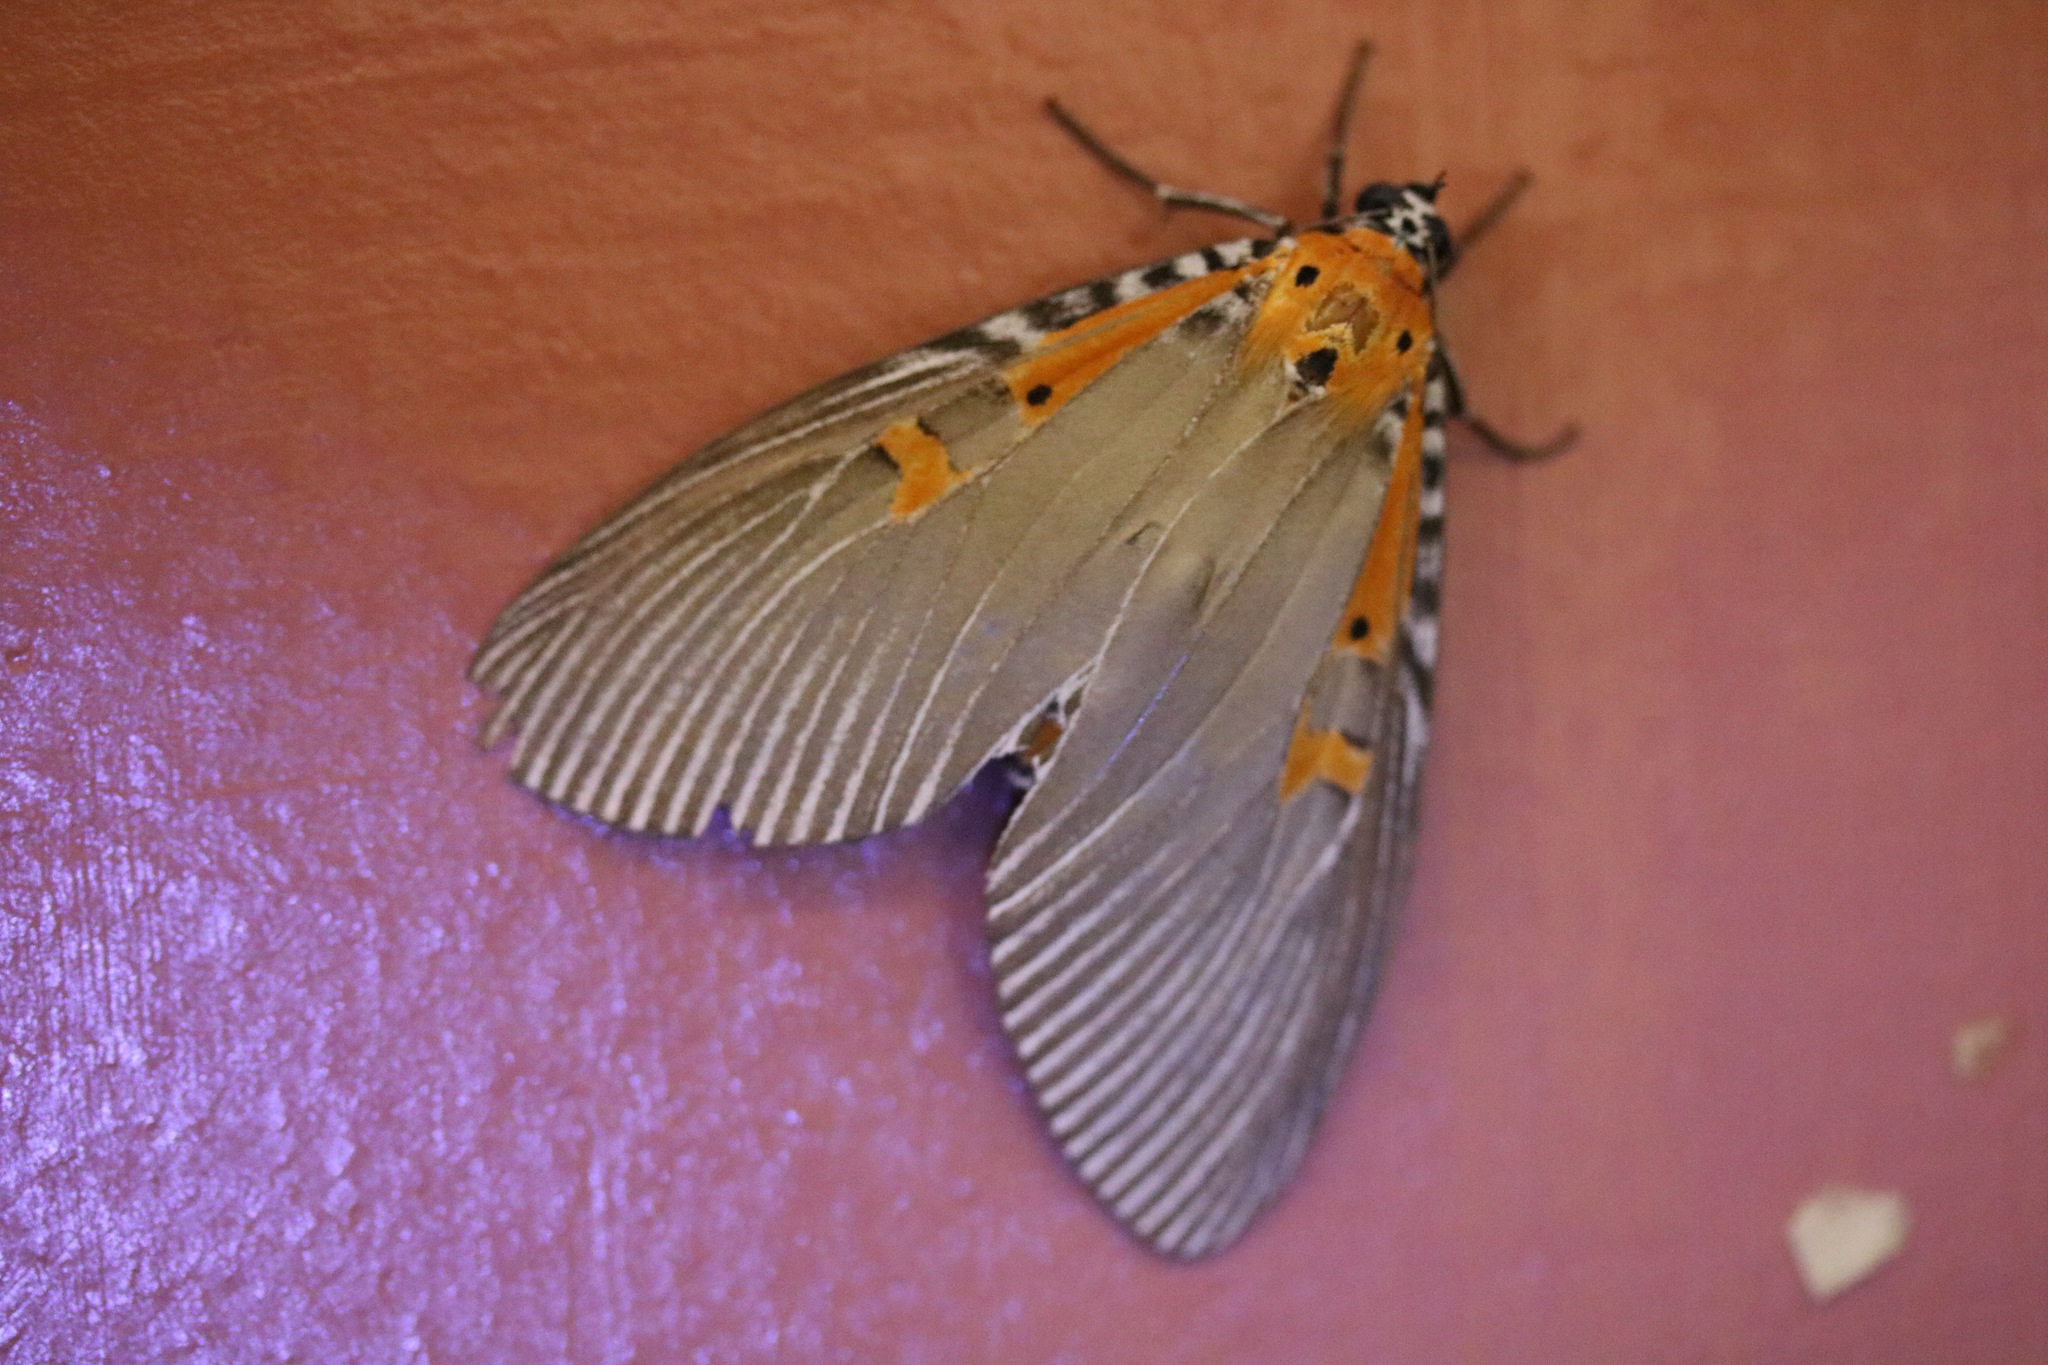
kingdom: Animalia
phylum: Arthropoda
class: Insecta
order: Lepidoptera
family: Erebidae
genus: Euplocia
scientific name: Euplocia membliaria
